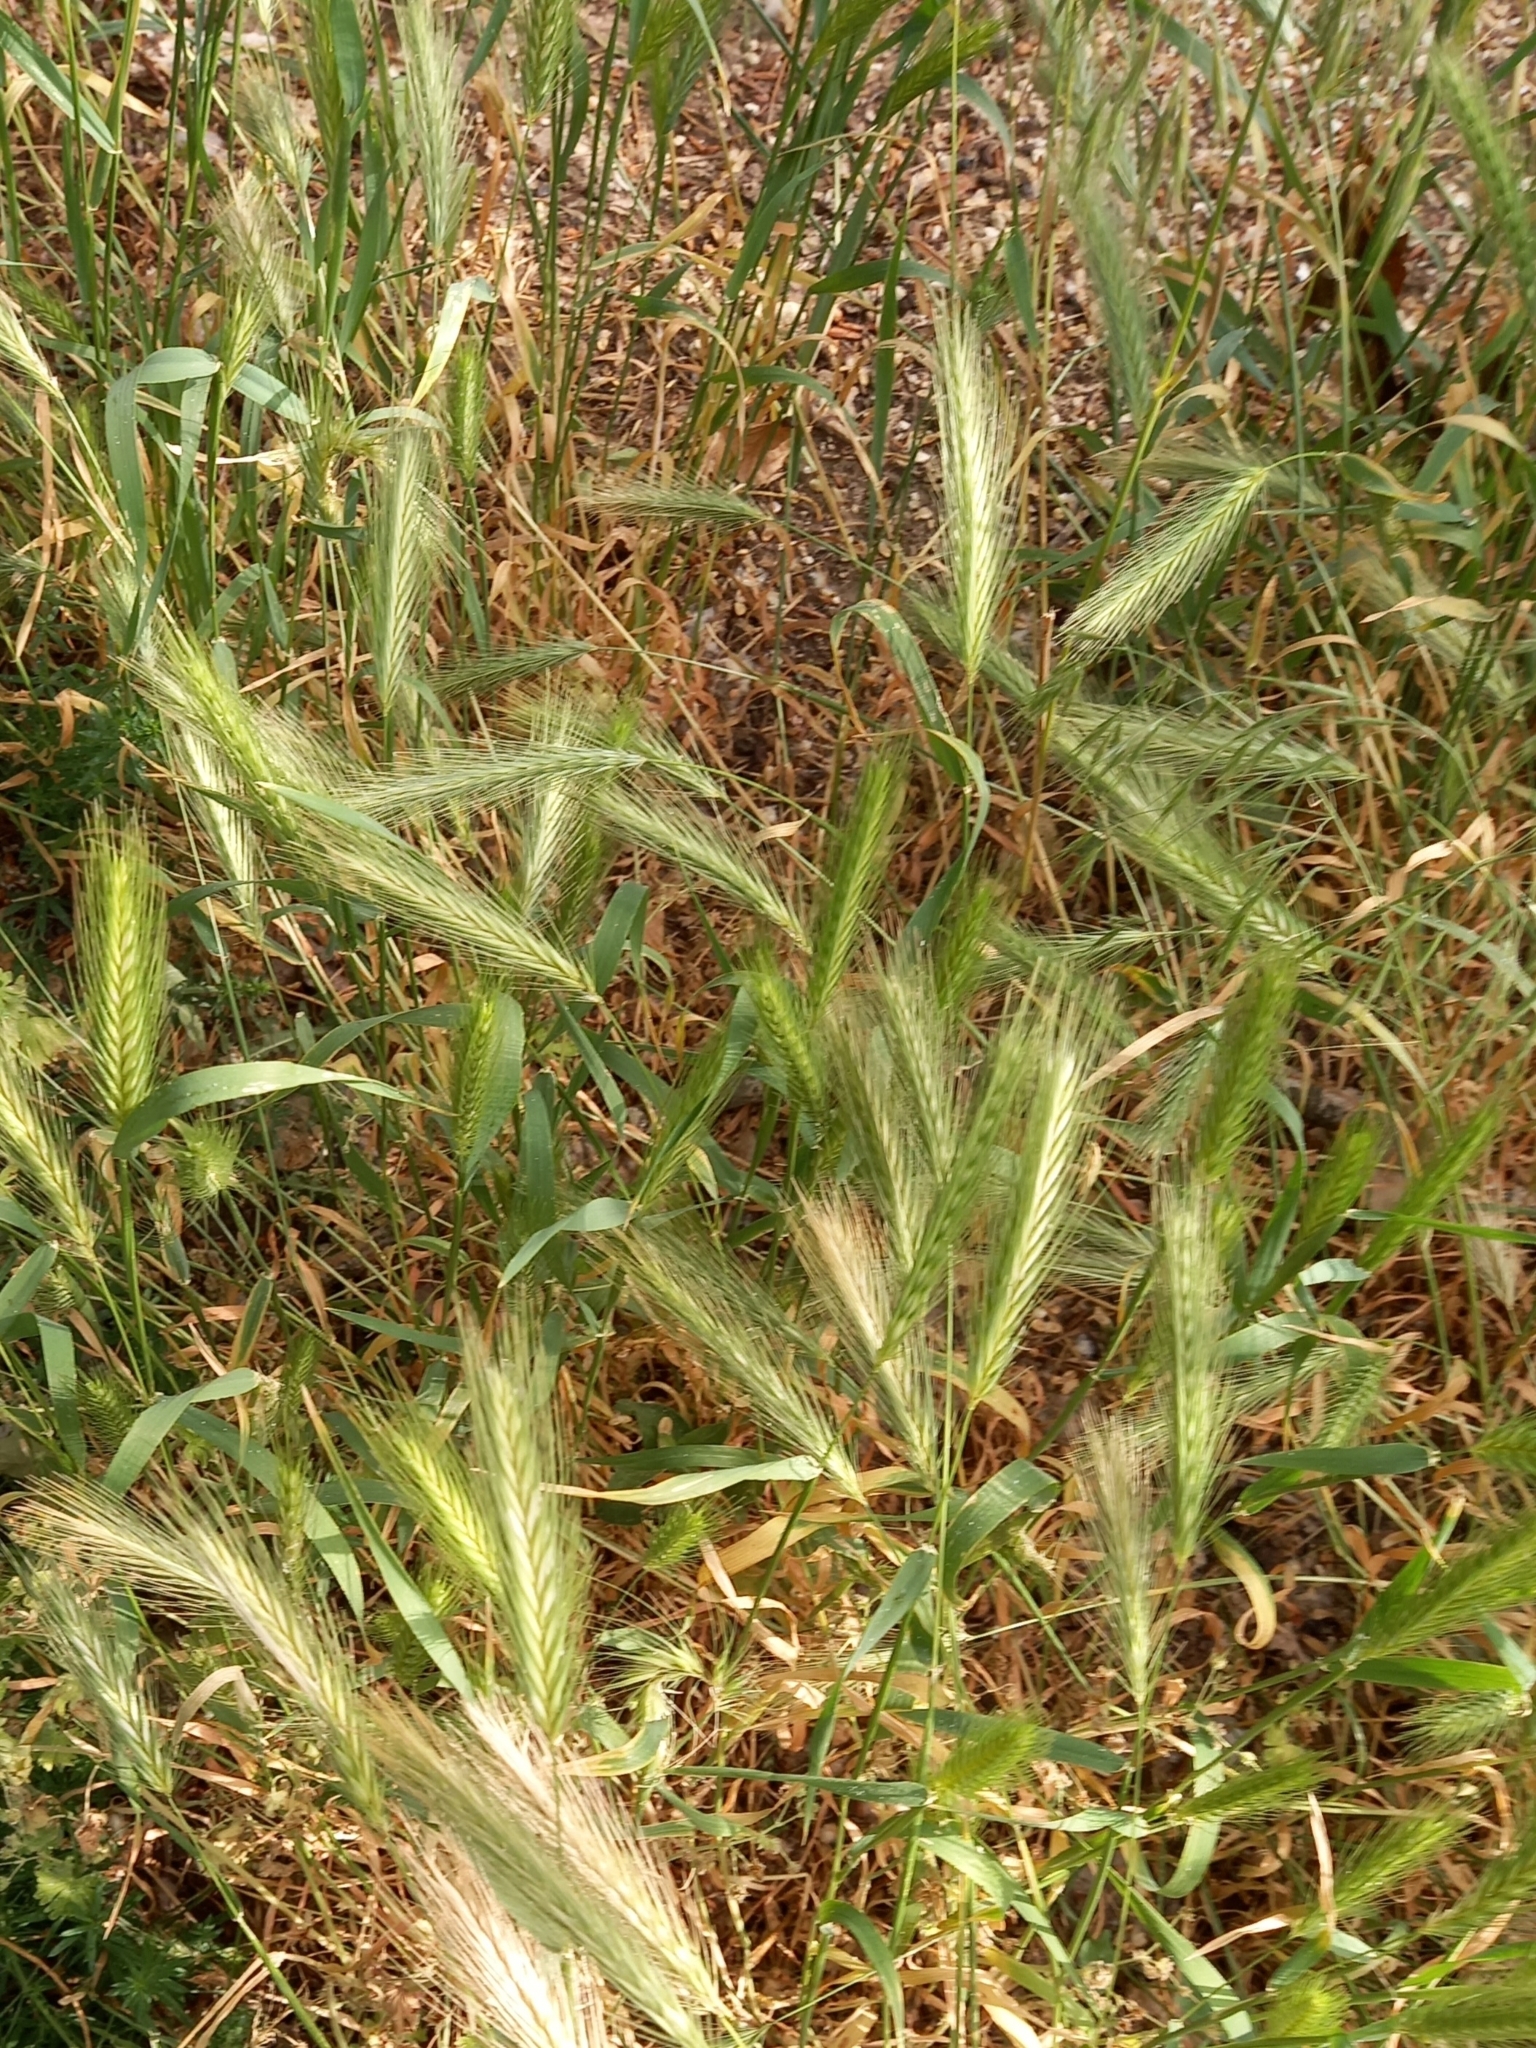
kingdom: Plantae
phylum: Tracheophyta
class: Liliopsida
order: Poales
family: Poaceae
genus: Hordeum
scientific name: Hordeum murinum
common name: Wall barley
